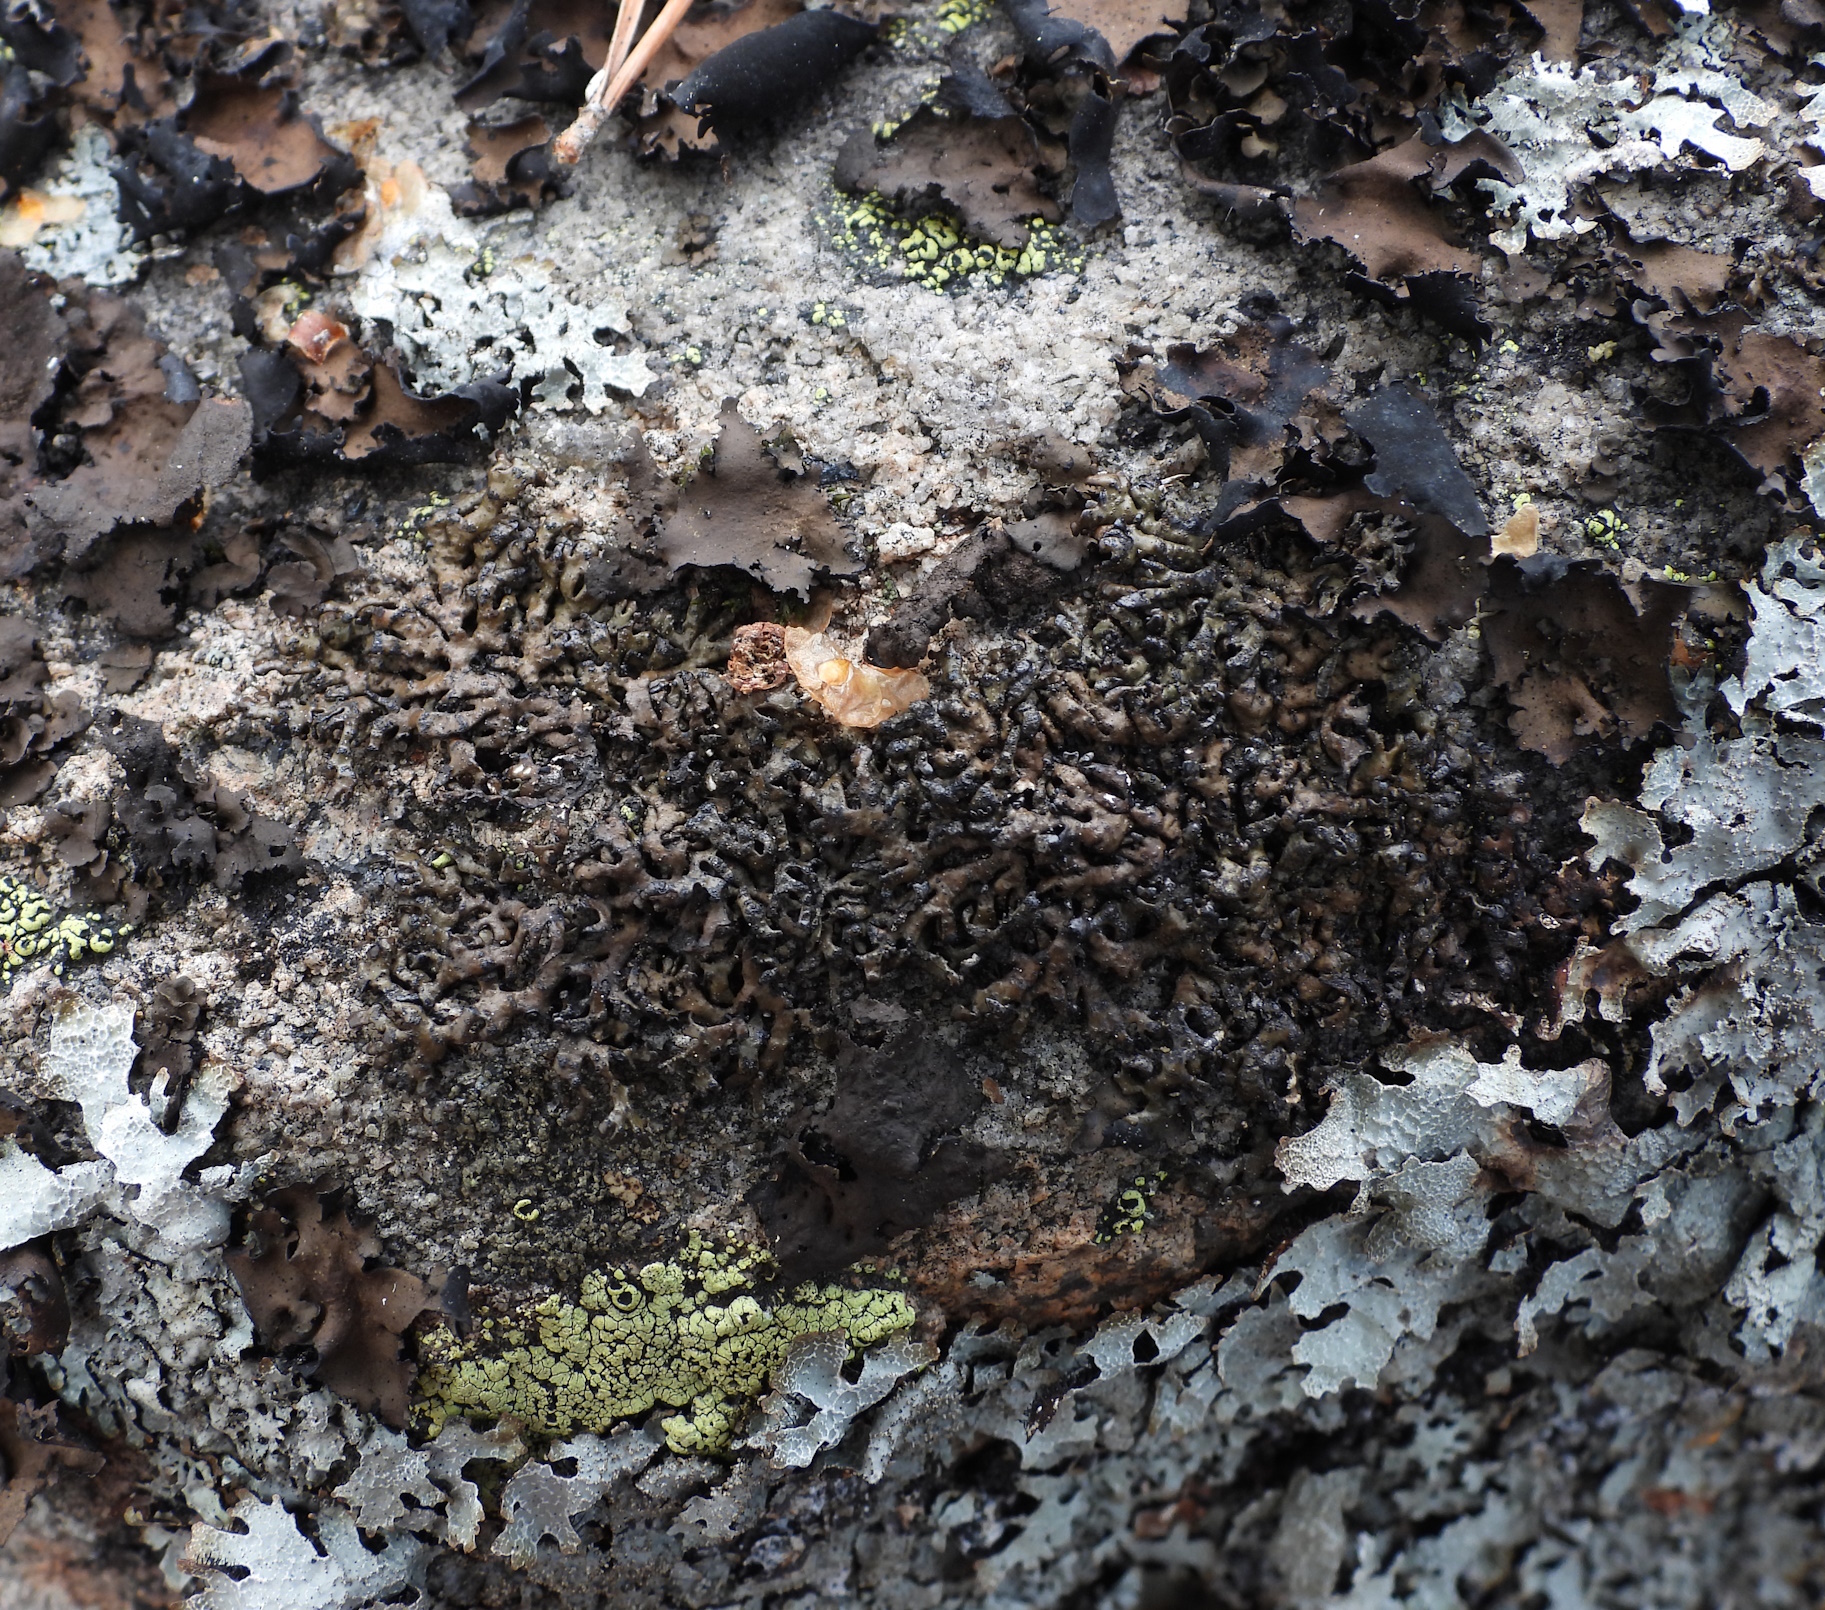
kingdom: Fungi
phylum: Ascomycota
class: Lecanoromycetes
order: Lecanorales
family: Parmeliaceae
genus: Melanelia
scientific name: Melanelia stygia
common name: Alpine camouflage lichen
